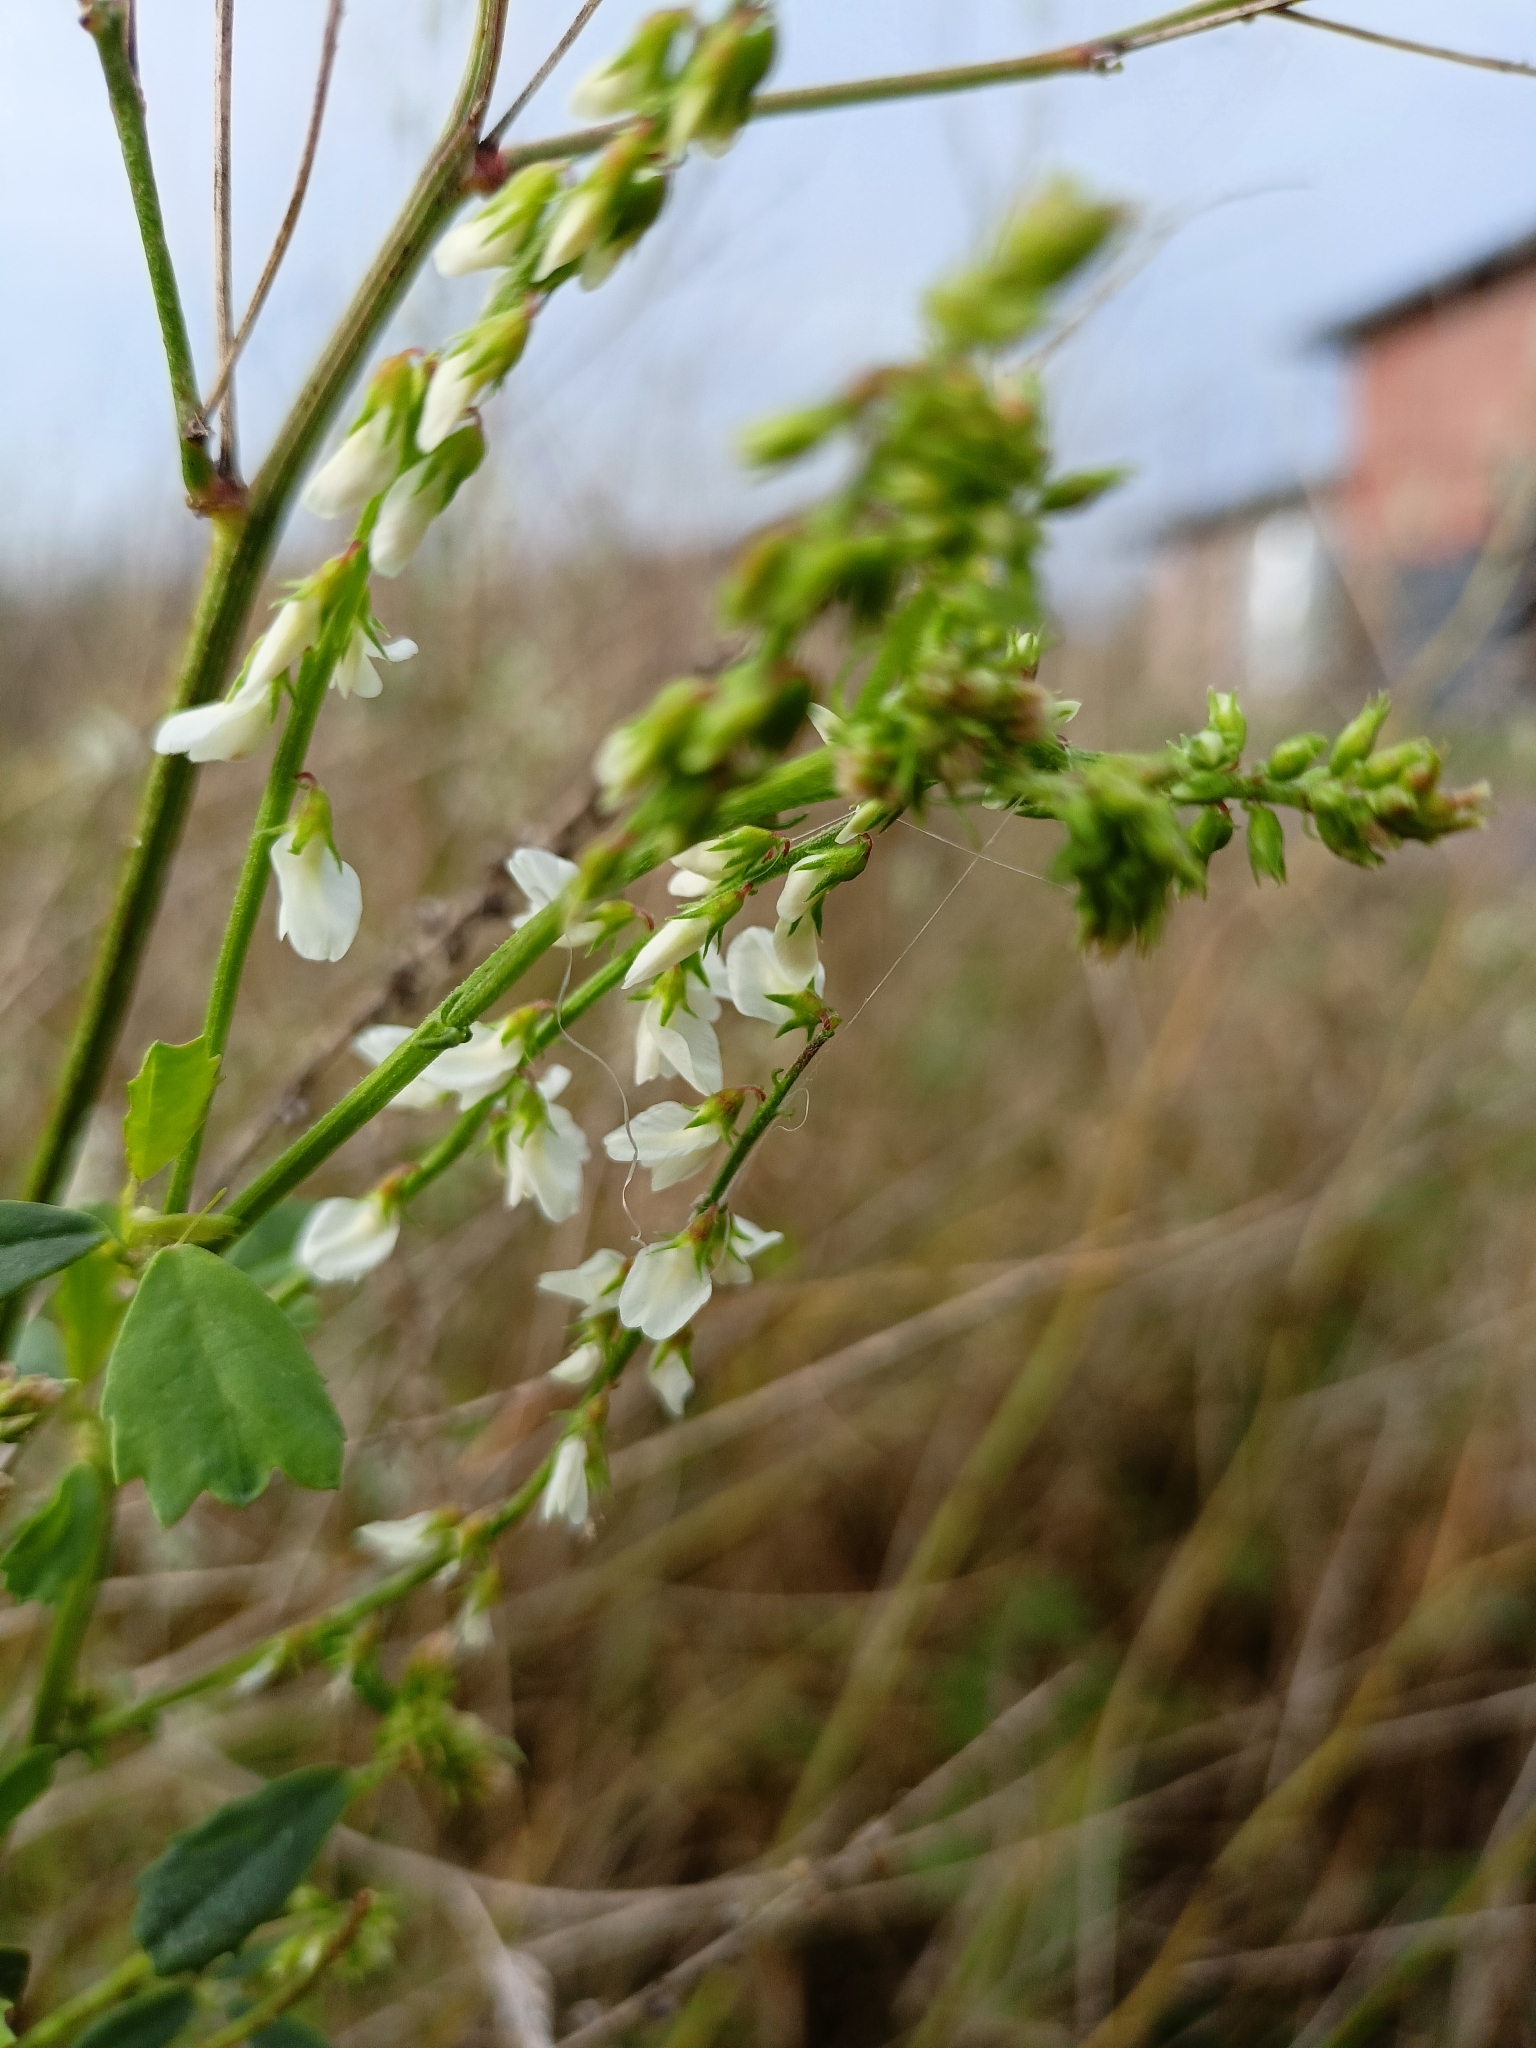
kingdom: Plantae
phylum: Tracheophyta
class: Magnoliopsida
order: Fabales
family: Fabaceae
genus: Melilotus
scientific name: Melilotus albus
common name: White melilot
